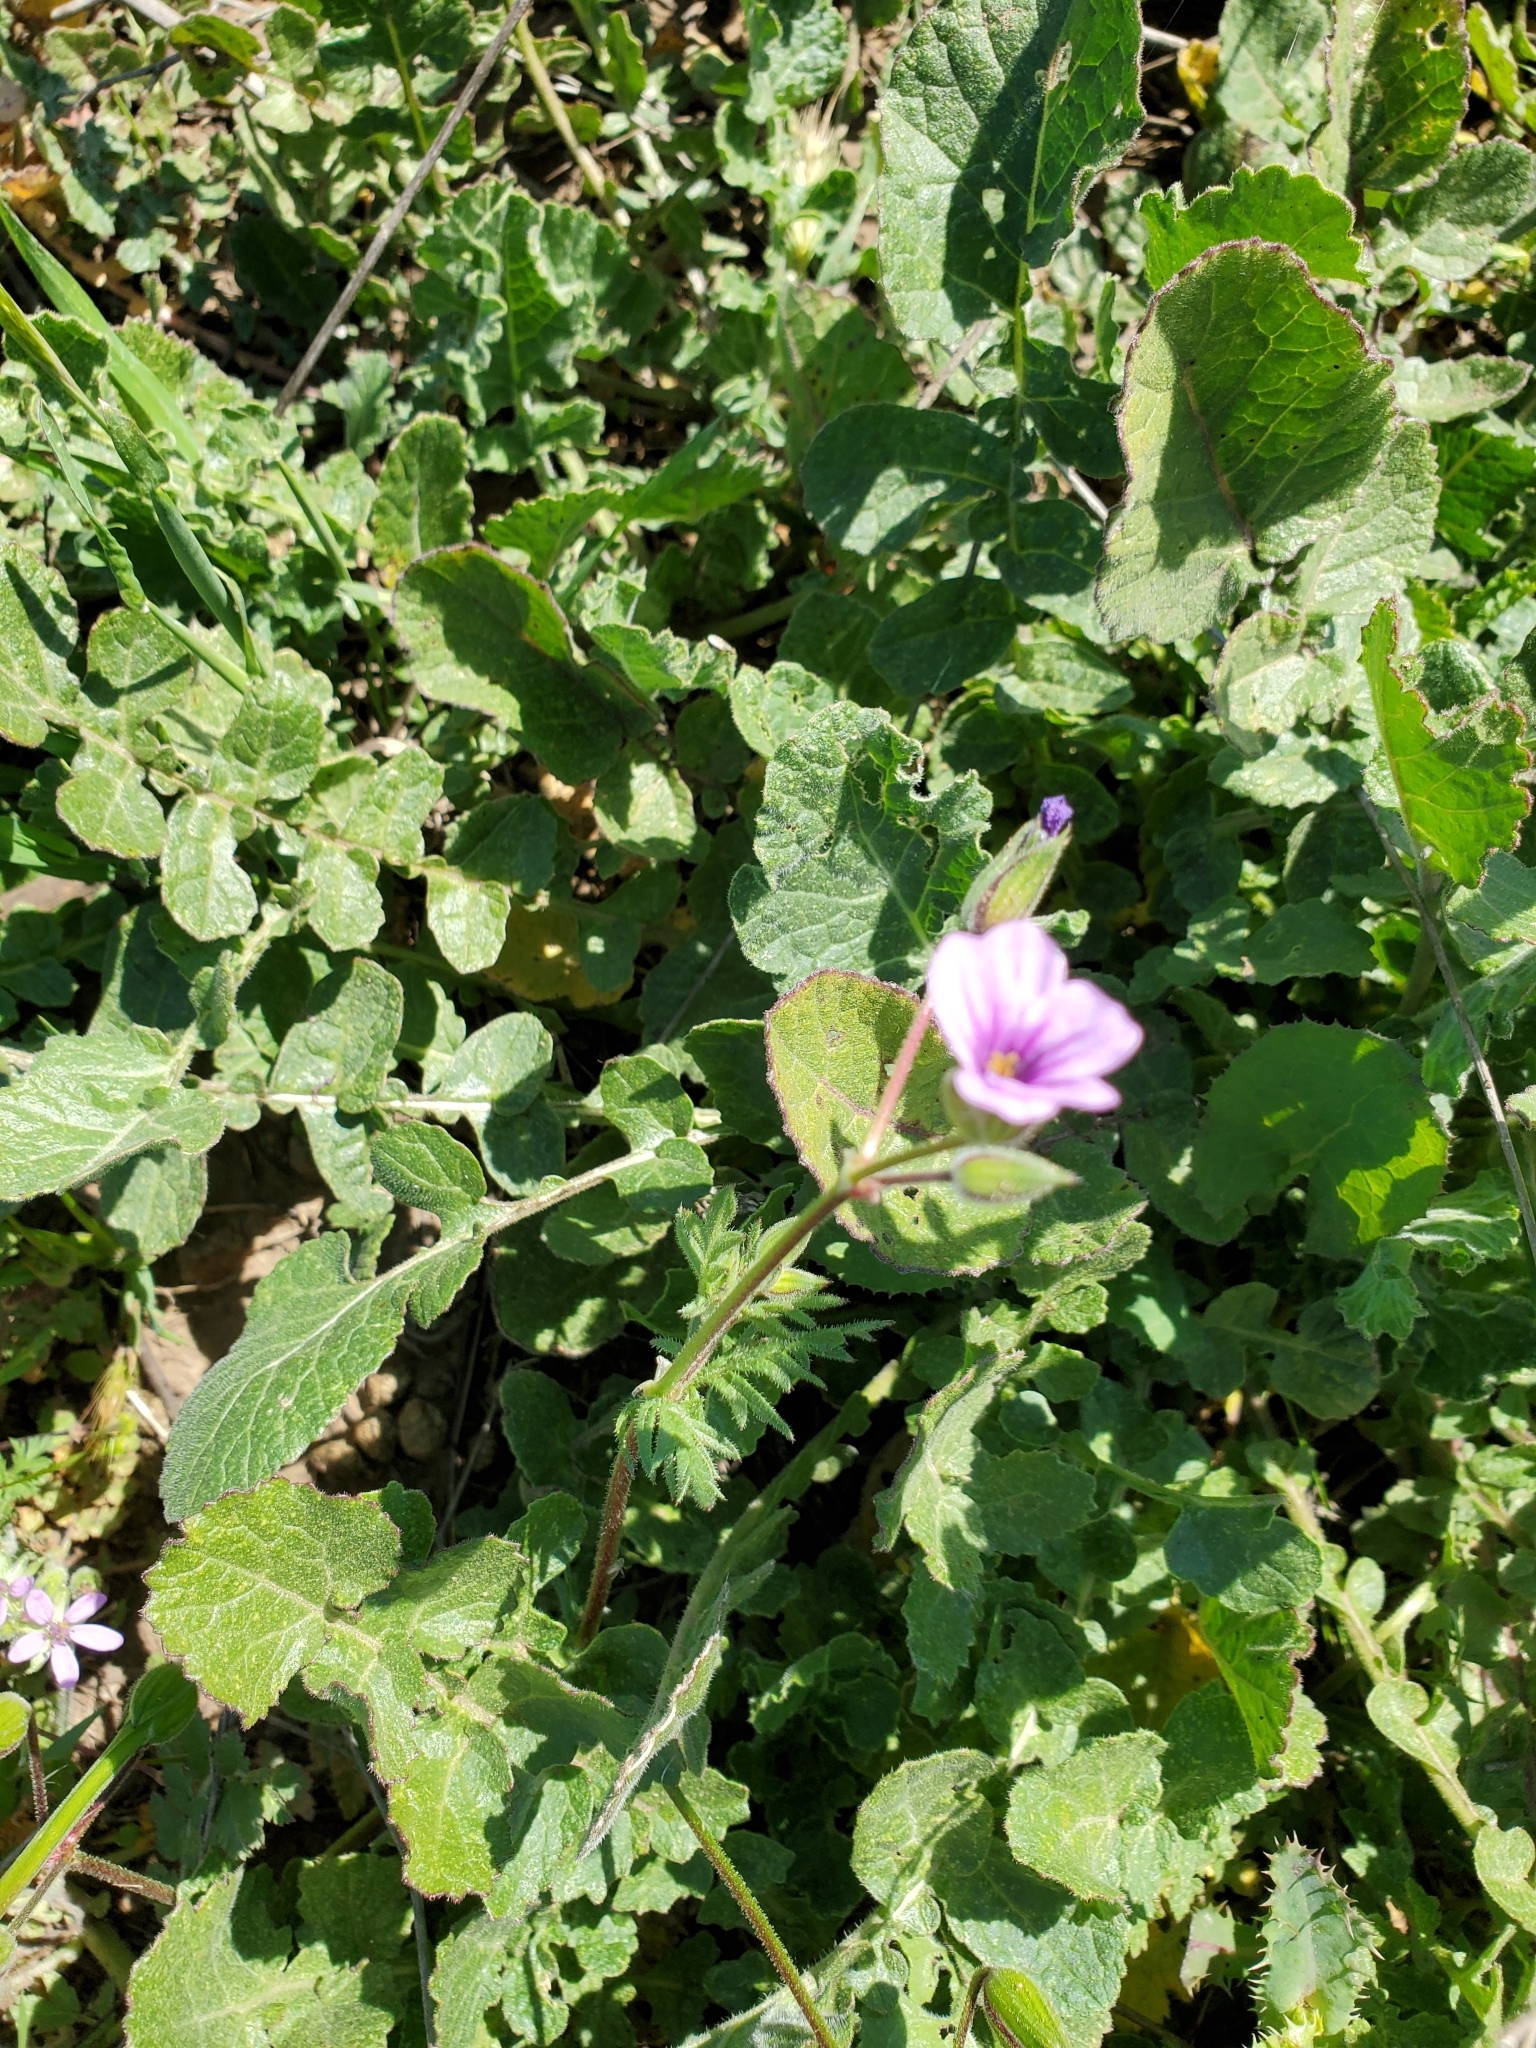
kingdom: Plantae
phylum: Tracheophyta
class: Magnoliopsida
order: Geraniales
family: Geraniaceae
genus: Erodium
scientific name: Erodium botrys
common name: Mediterranean stork's-bill
